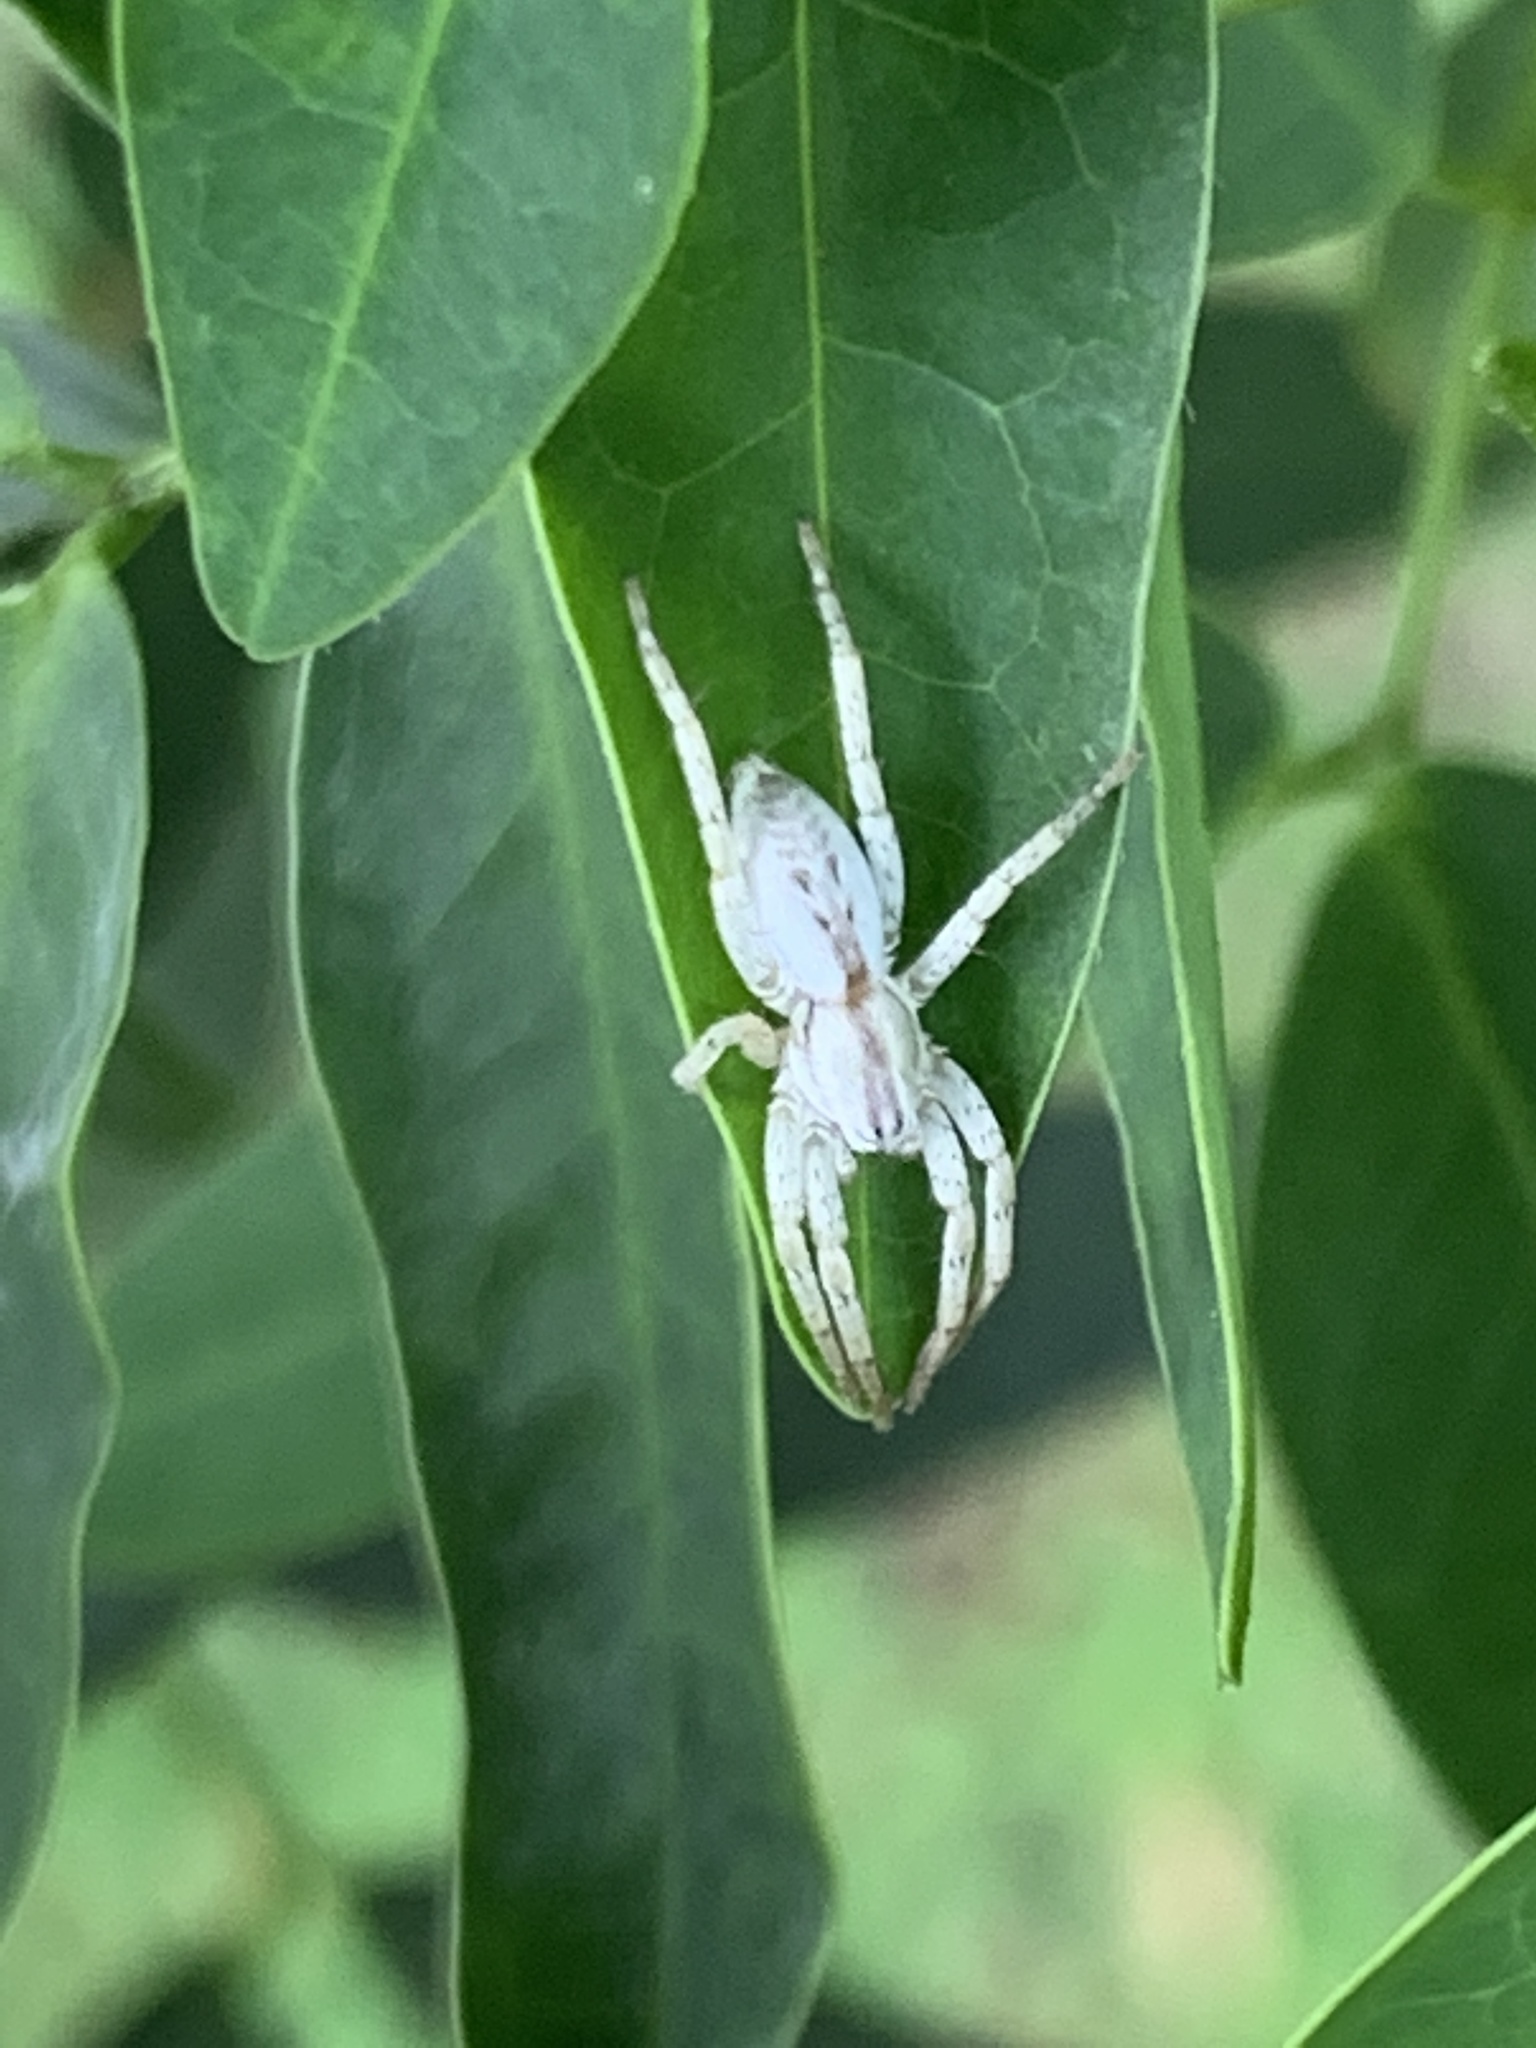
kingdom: Animalia
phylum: Arthropoda
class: Arachnida
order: Araneae
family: Anyphaenidae
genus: Arachosia
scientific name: Arachosia praesignis
